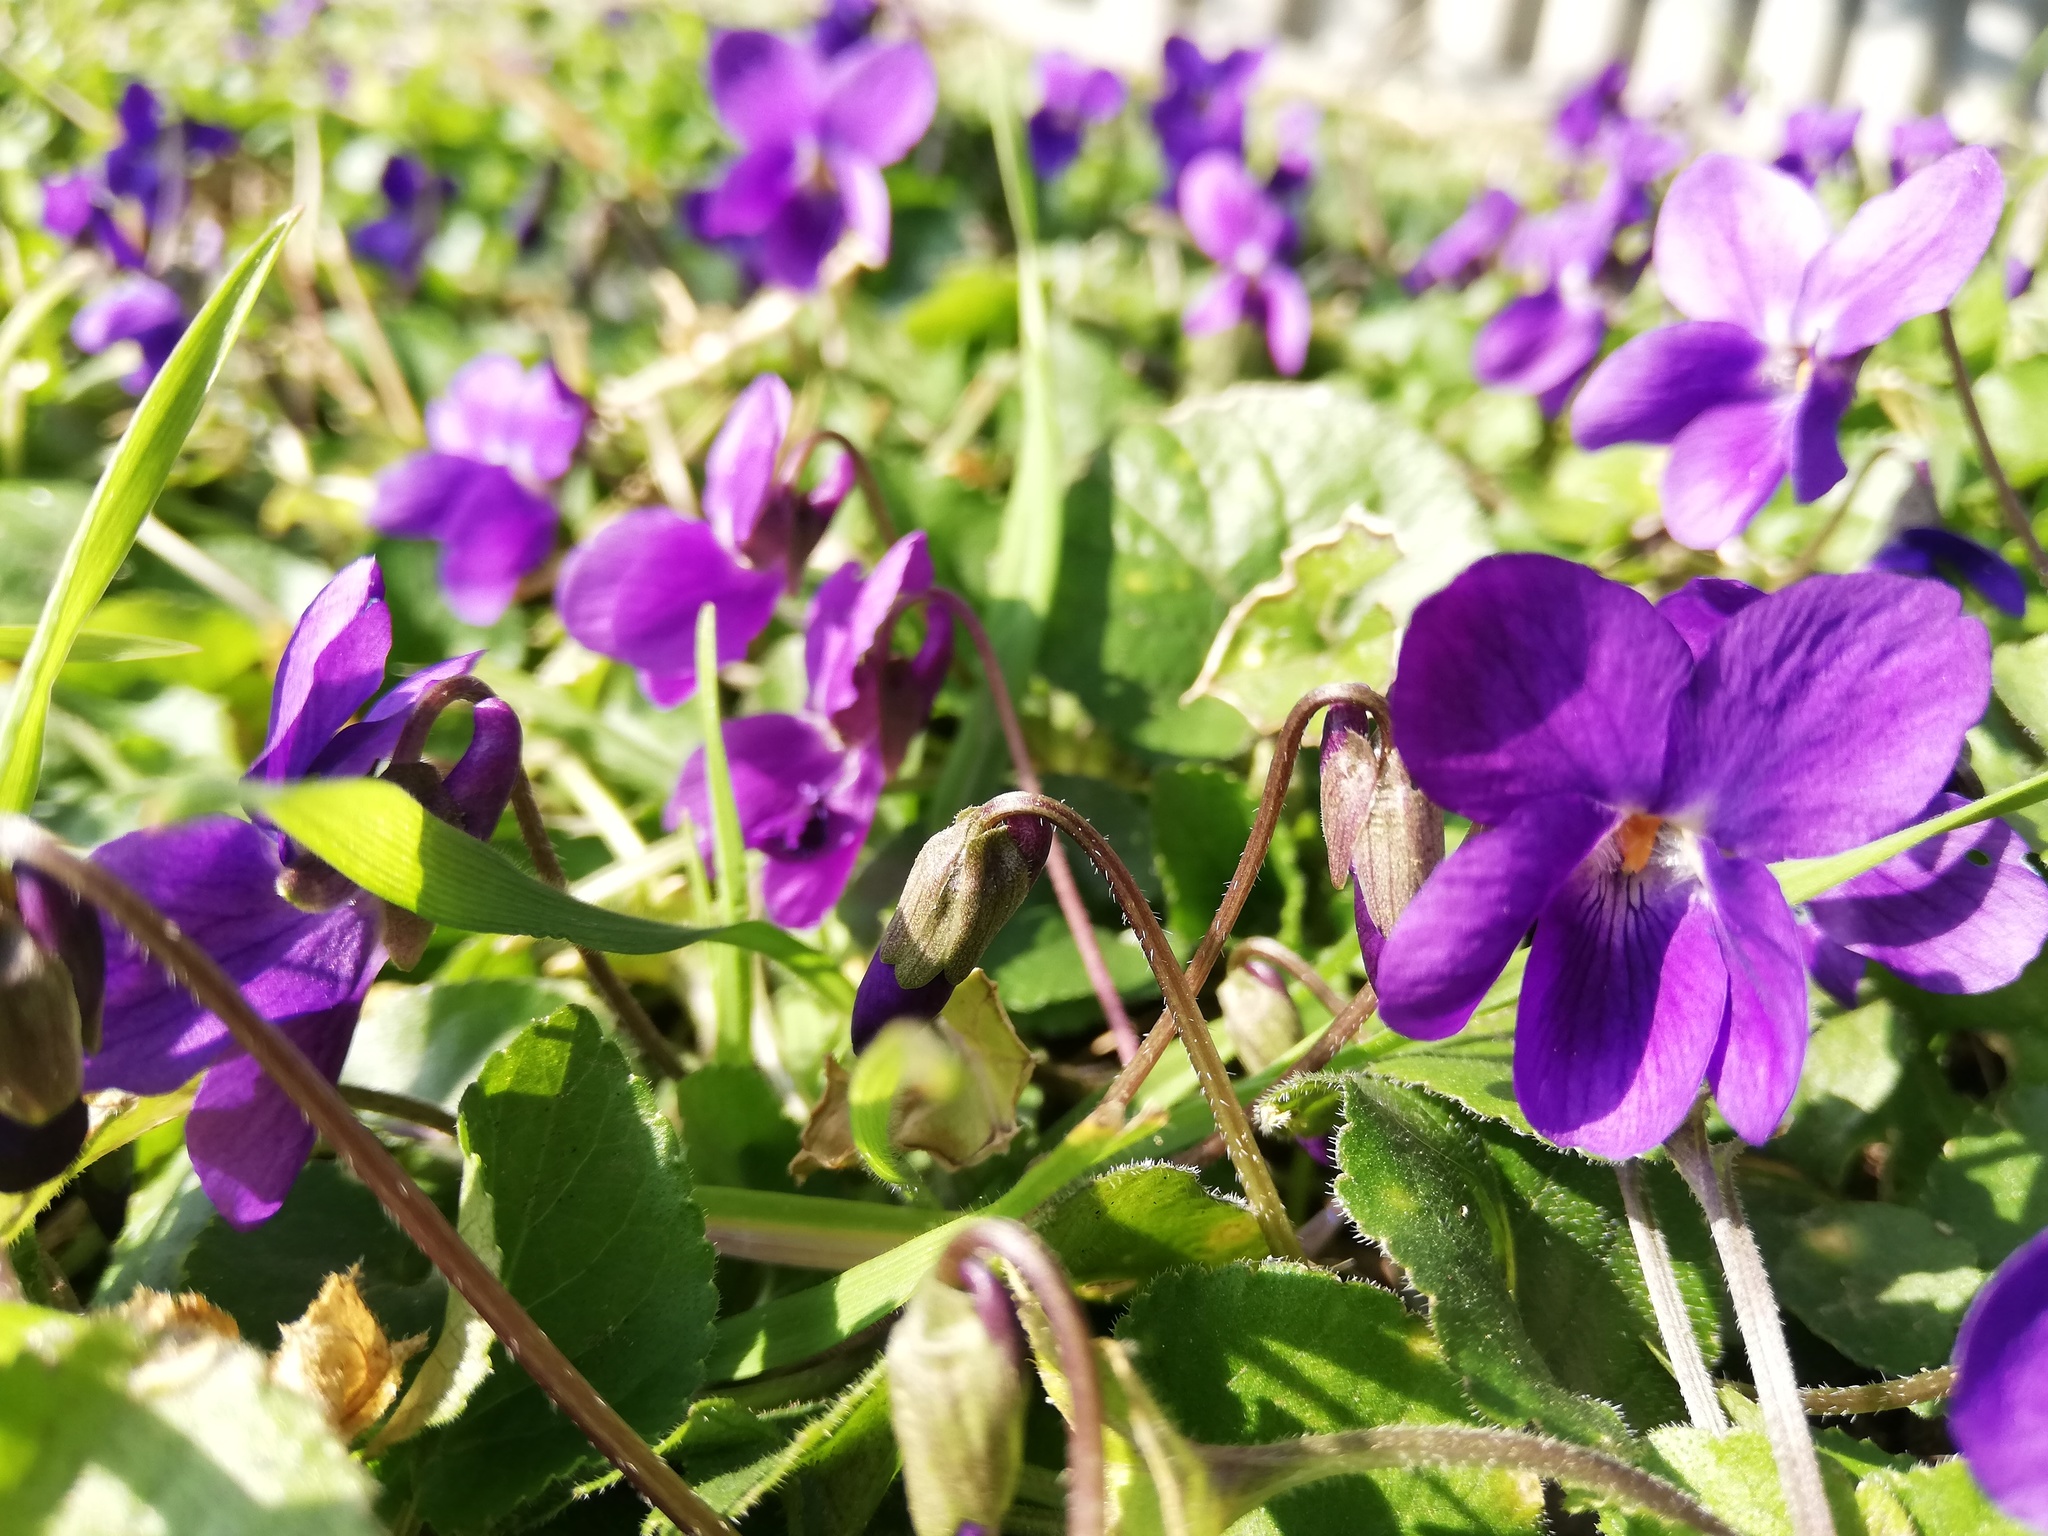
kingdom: Plantae
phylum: Tracheophyta
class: Magnoliopsida
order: Malpighiales
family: Violaceae
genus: Viola
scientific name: Viola odorata
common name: Sweet violet
